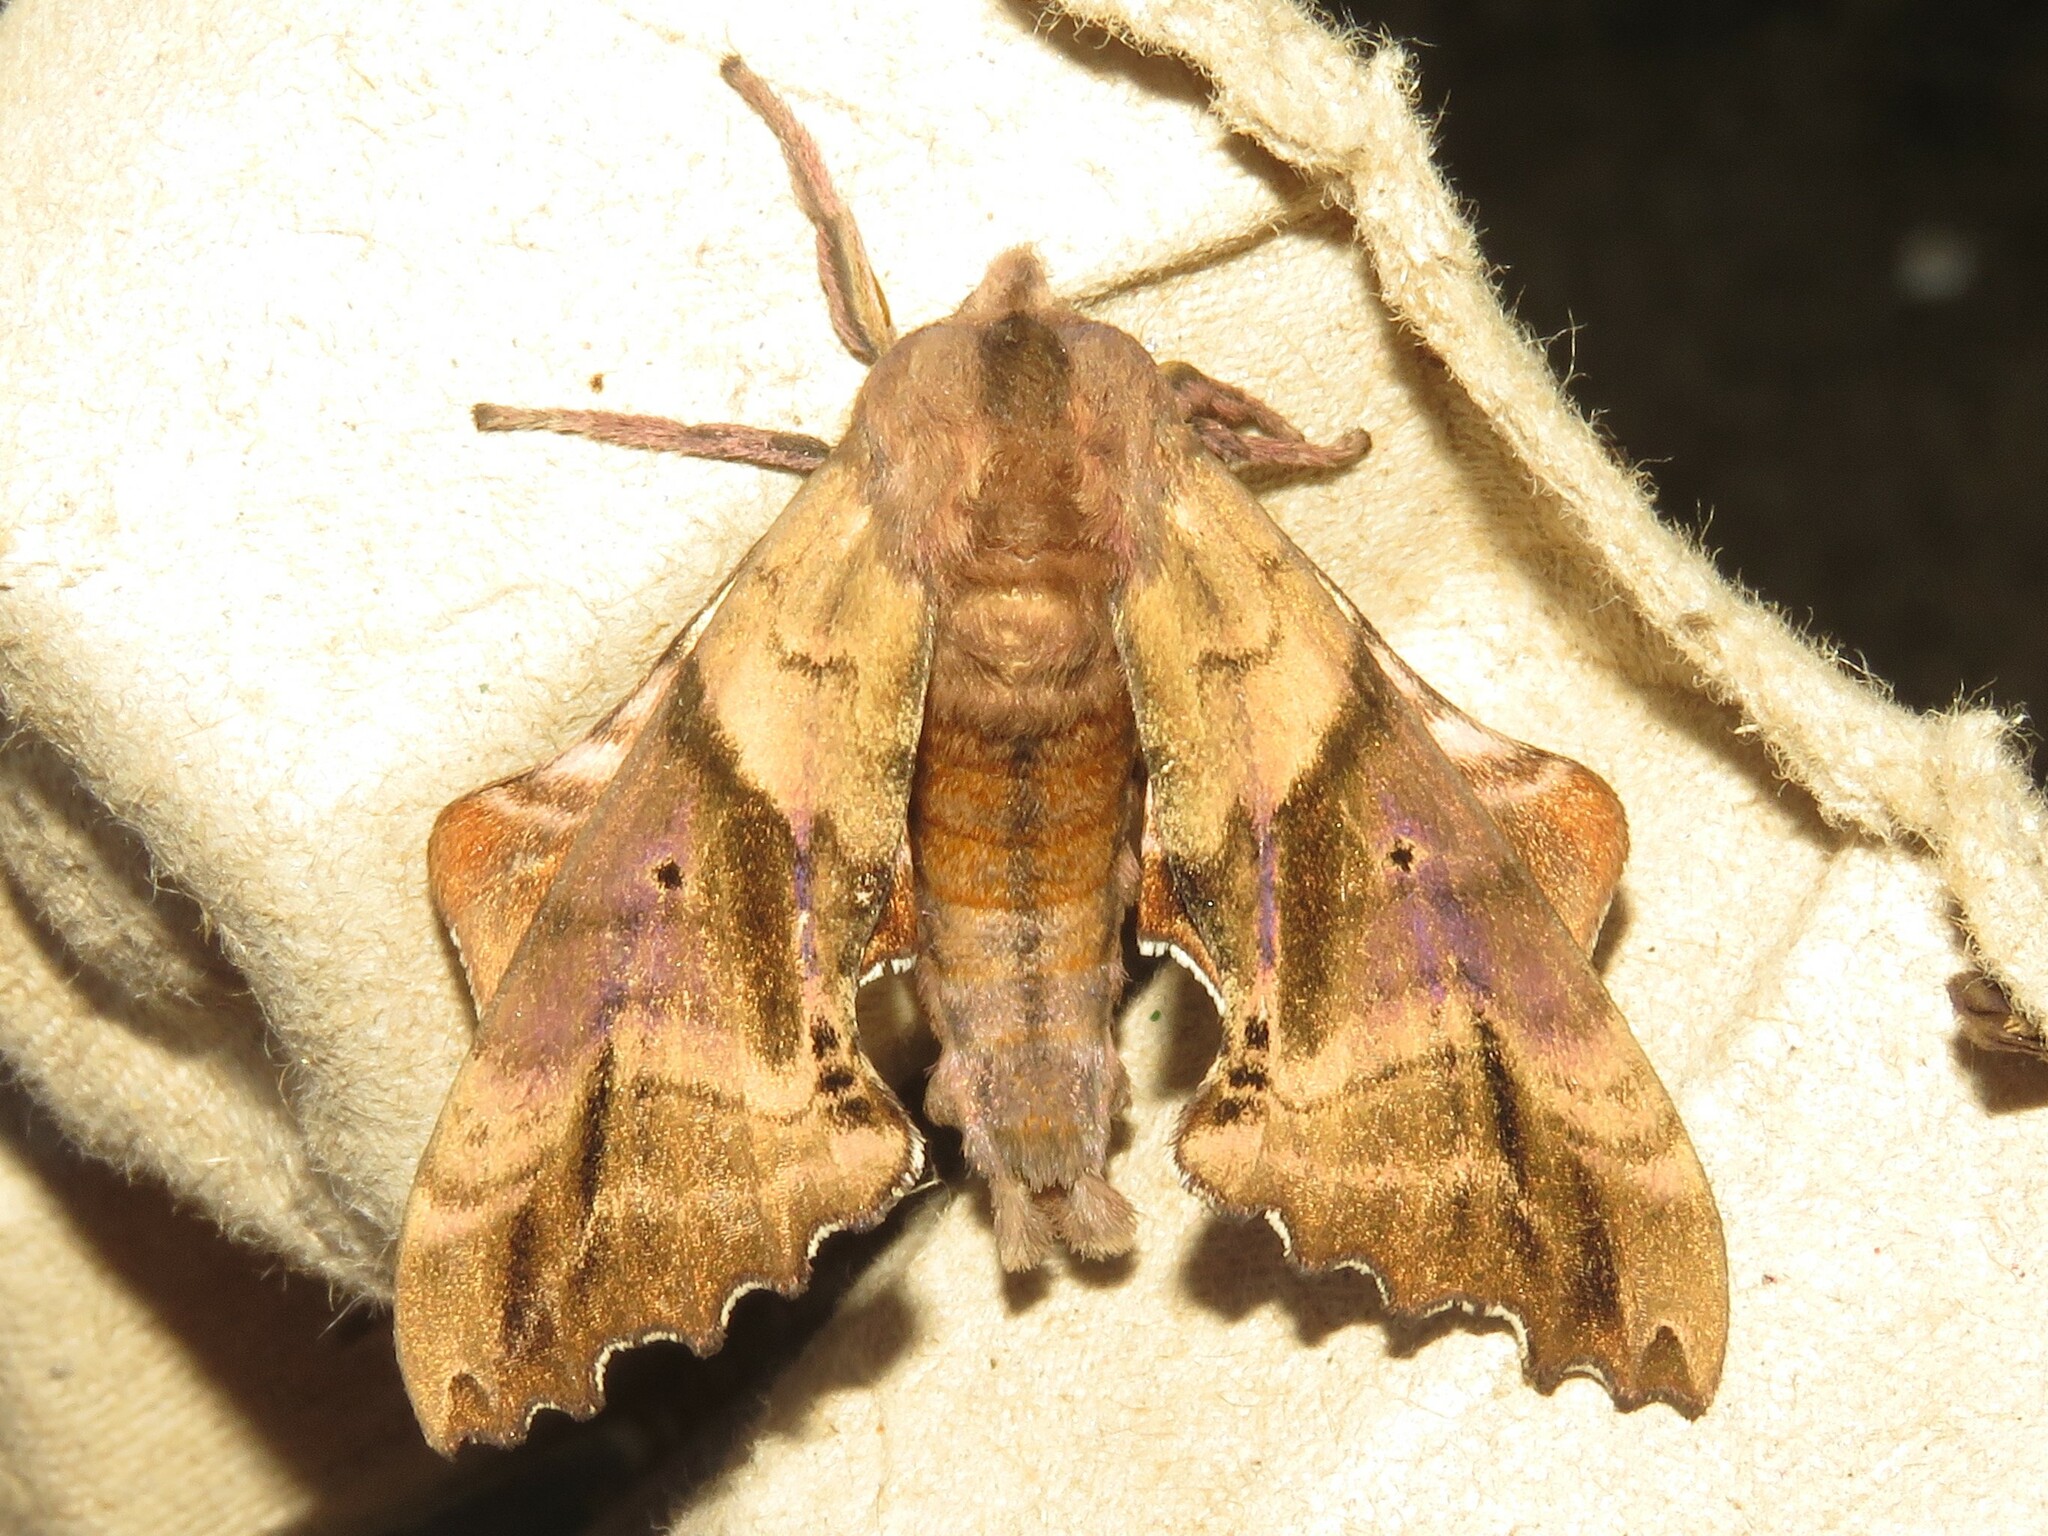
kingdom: Animalia
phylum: Arthropoda
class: Insecta
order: Lepidoptera
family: Sphingidae
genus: Paonias
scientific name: Paonias excaecata
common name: Blind-eyed sphinx
